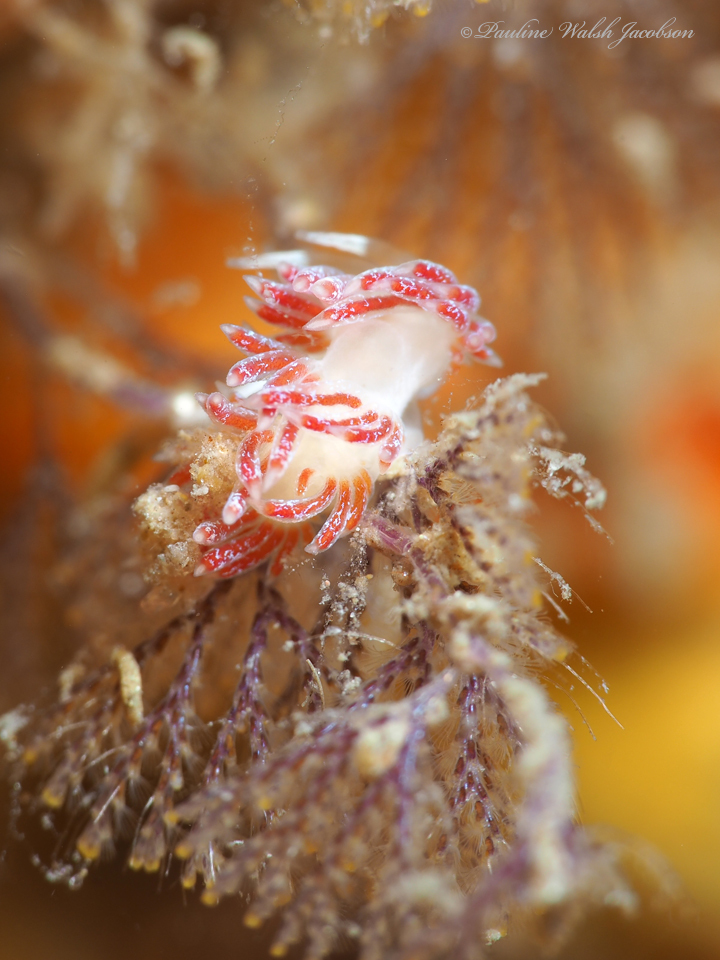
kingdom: Animalia
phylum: Mollusca
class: Gastropoda
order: Nudibranchia
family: Facelinidae
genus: Cratena
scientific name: Cratena minor
